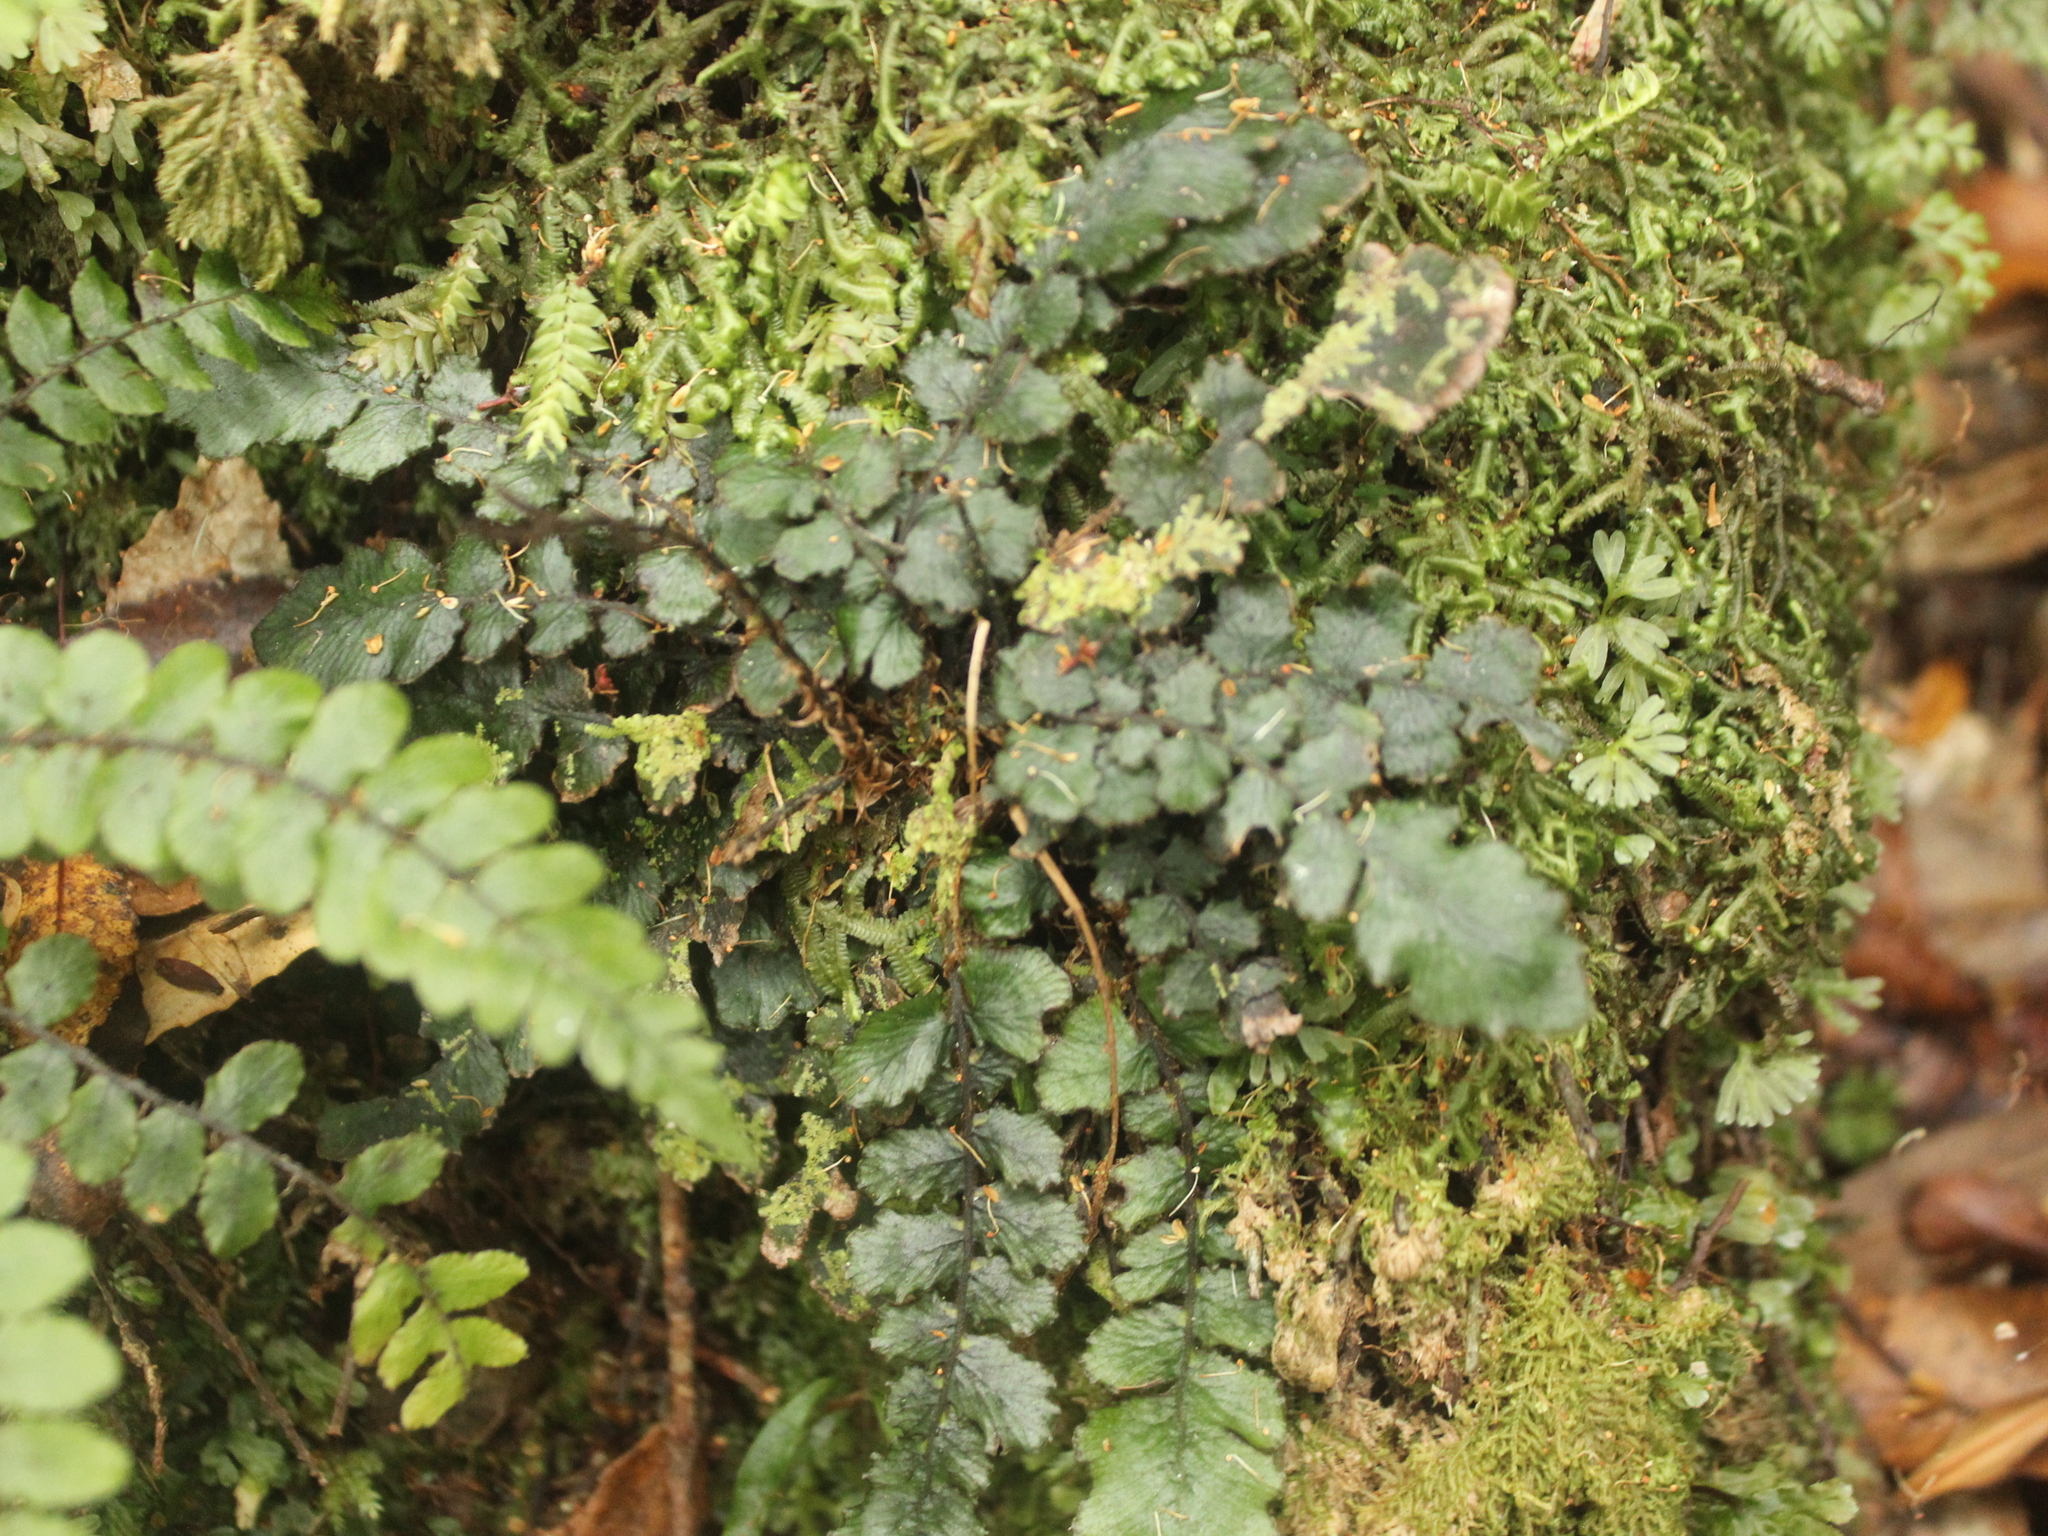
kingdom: Plantae
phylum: Tracheophyta
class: Polypodiopsida
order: Polypodiales
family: Blechnaceae
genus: Cranfillia
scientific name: Cranfillia nigra
